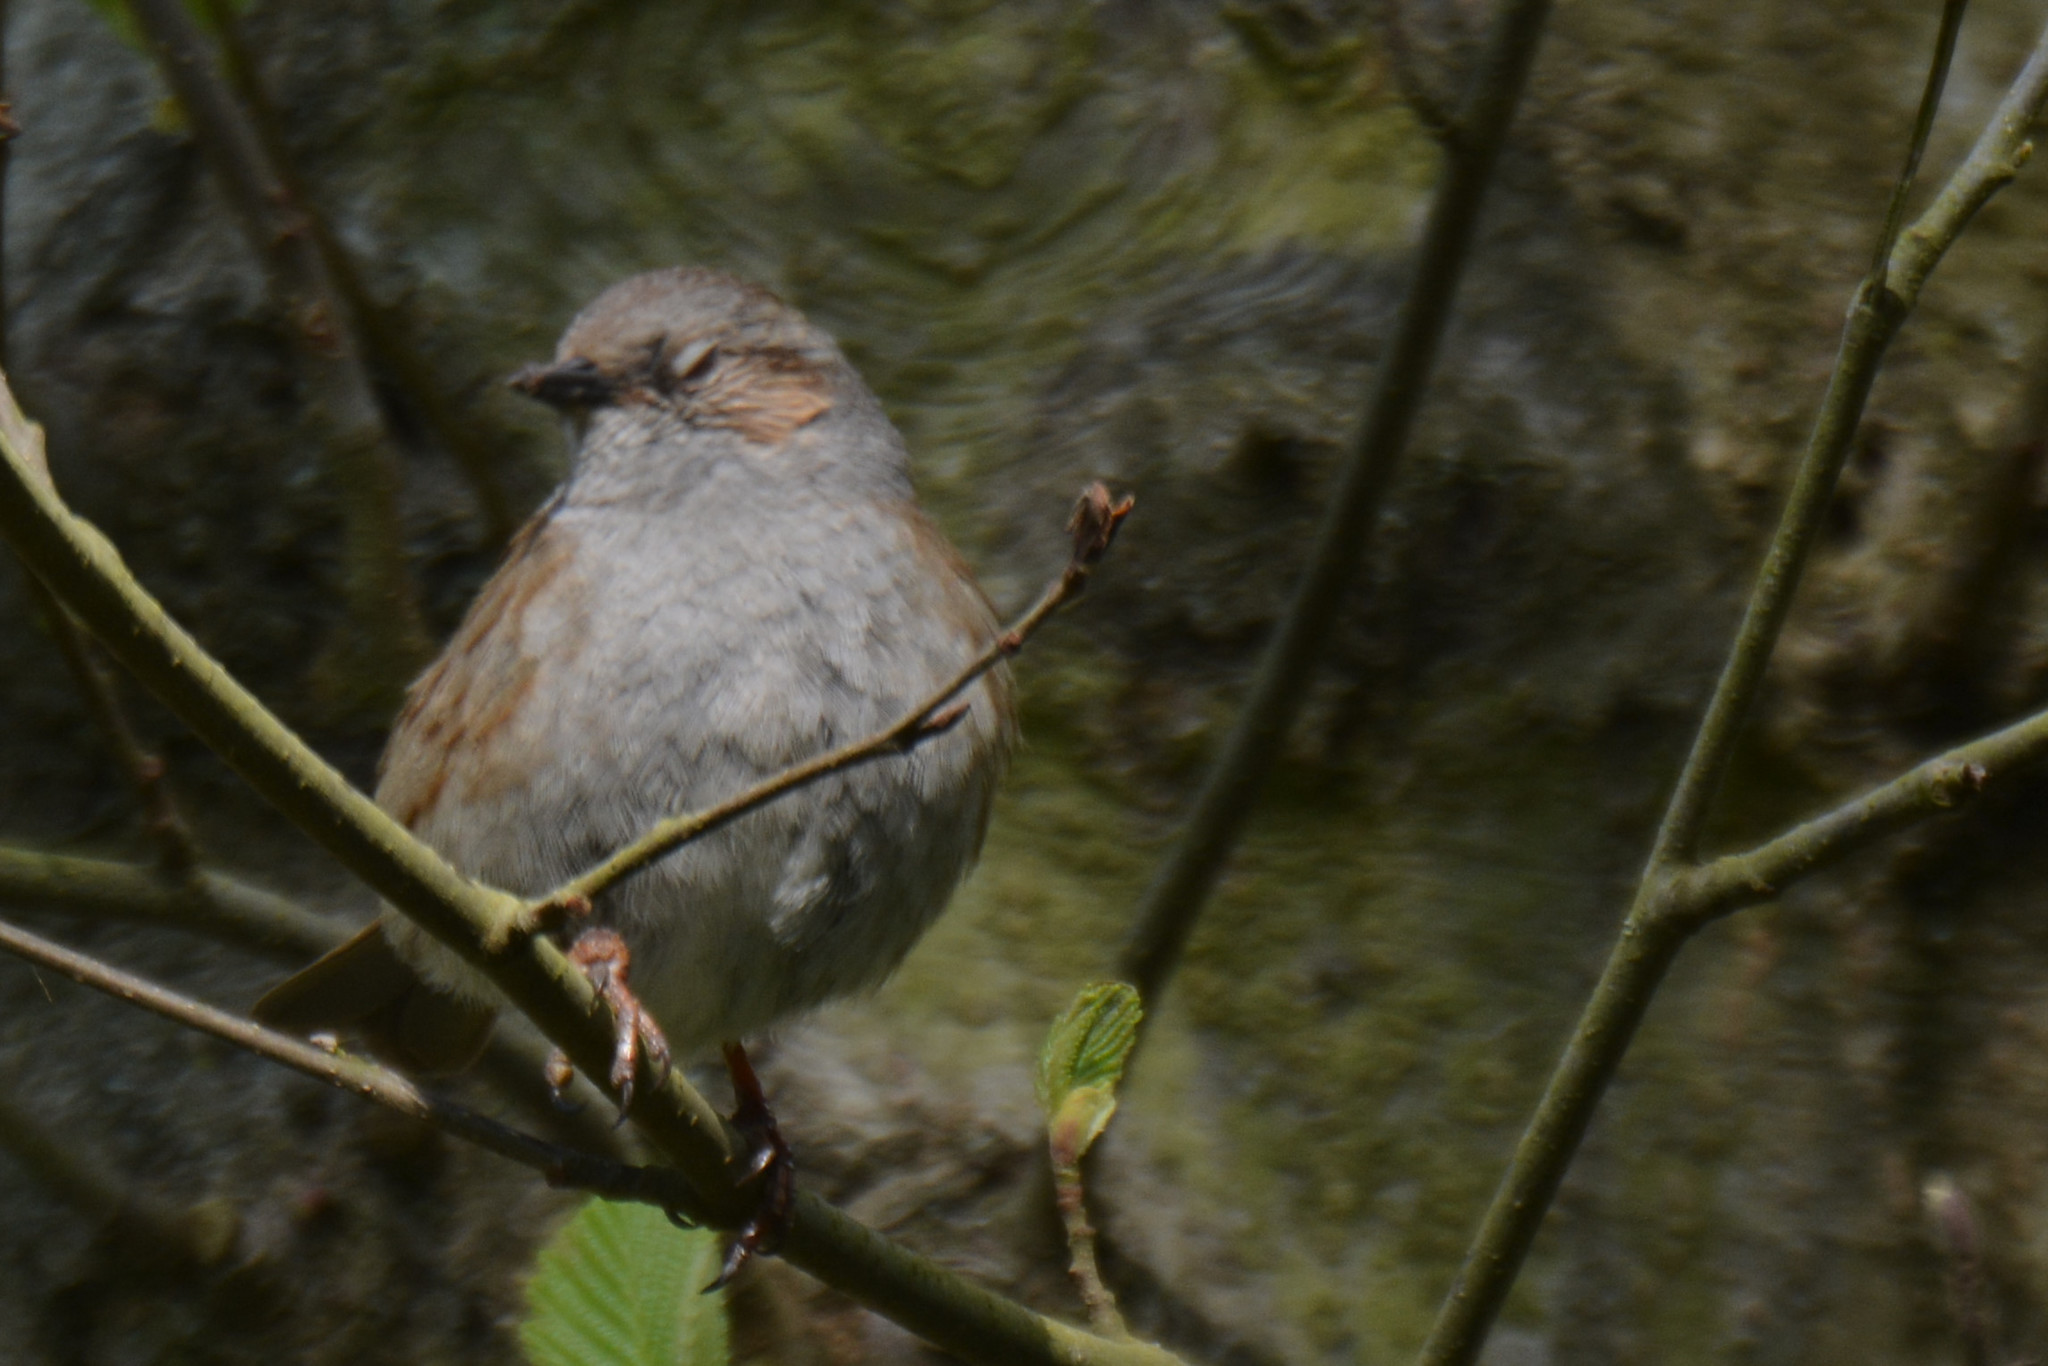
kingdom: Animalia
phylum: Chordata
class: Aves
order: Passeriformes
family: Prunellidae
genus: Prunella
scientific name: Prunella modularis
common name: Dunnock
